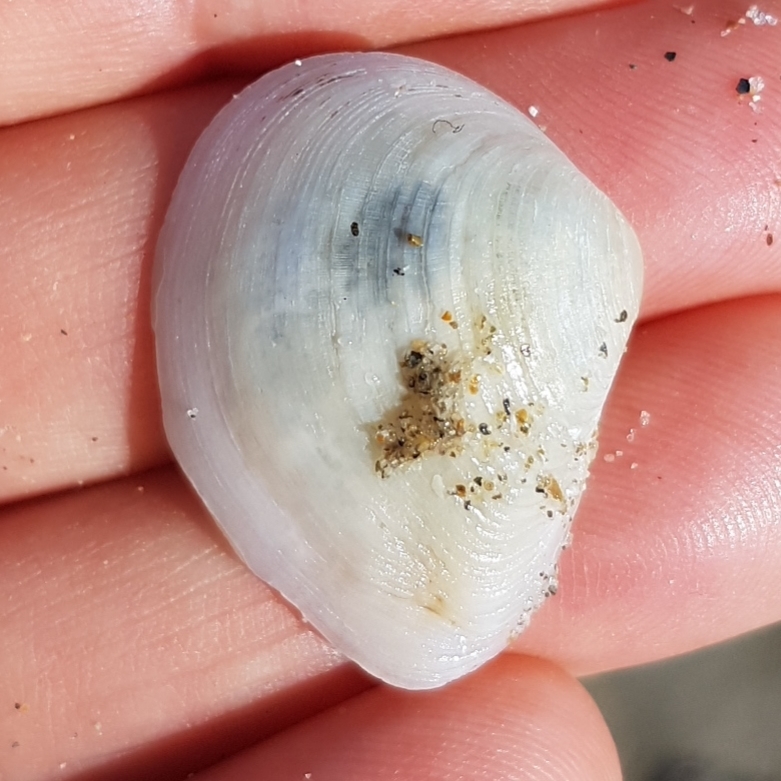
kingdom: Animalia
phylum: Mollusca
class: Bivalvia
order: Cardiida
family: Tellinidae
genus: Gastrana
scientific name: Gastrana fragilis
